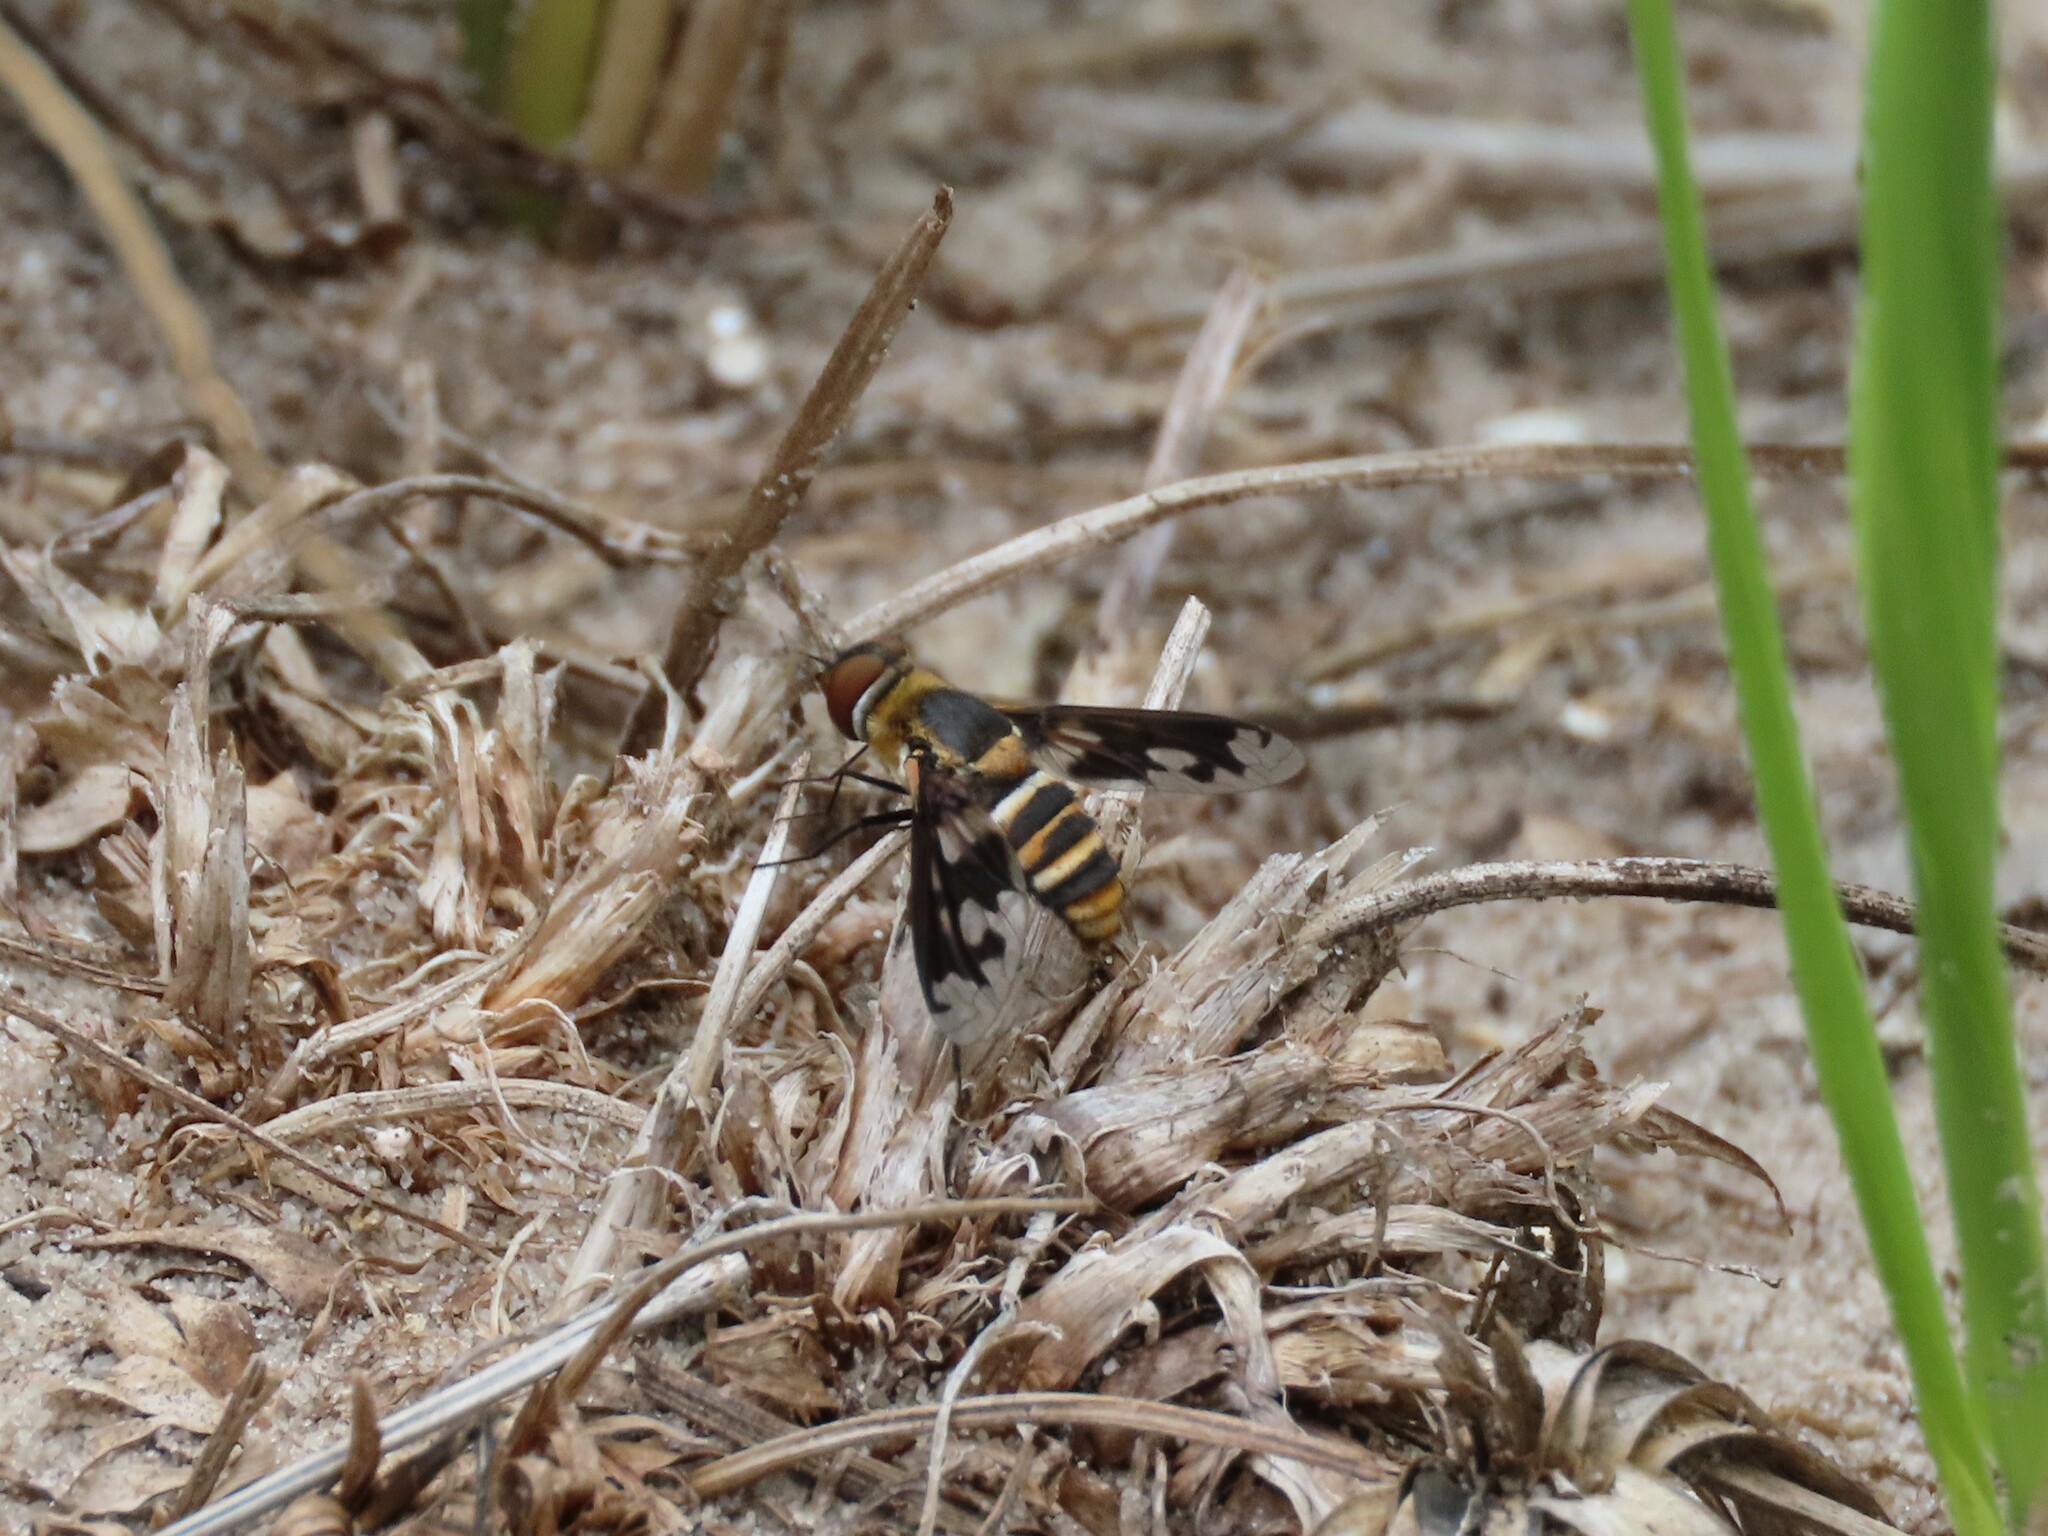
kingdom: Animalia
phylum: Arthropoda
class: Insecta
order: Diptera
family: Bombyliidae
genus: Exoprosopa
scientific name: Exoprosopa fascipennis
